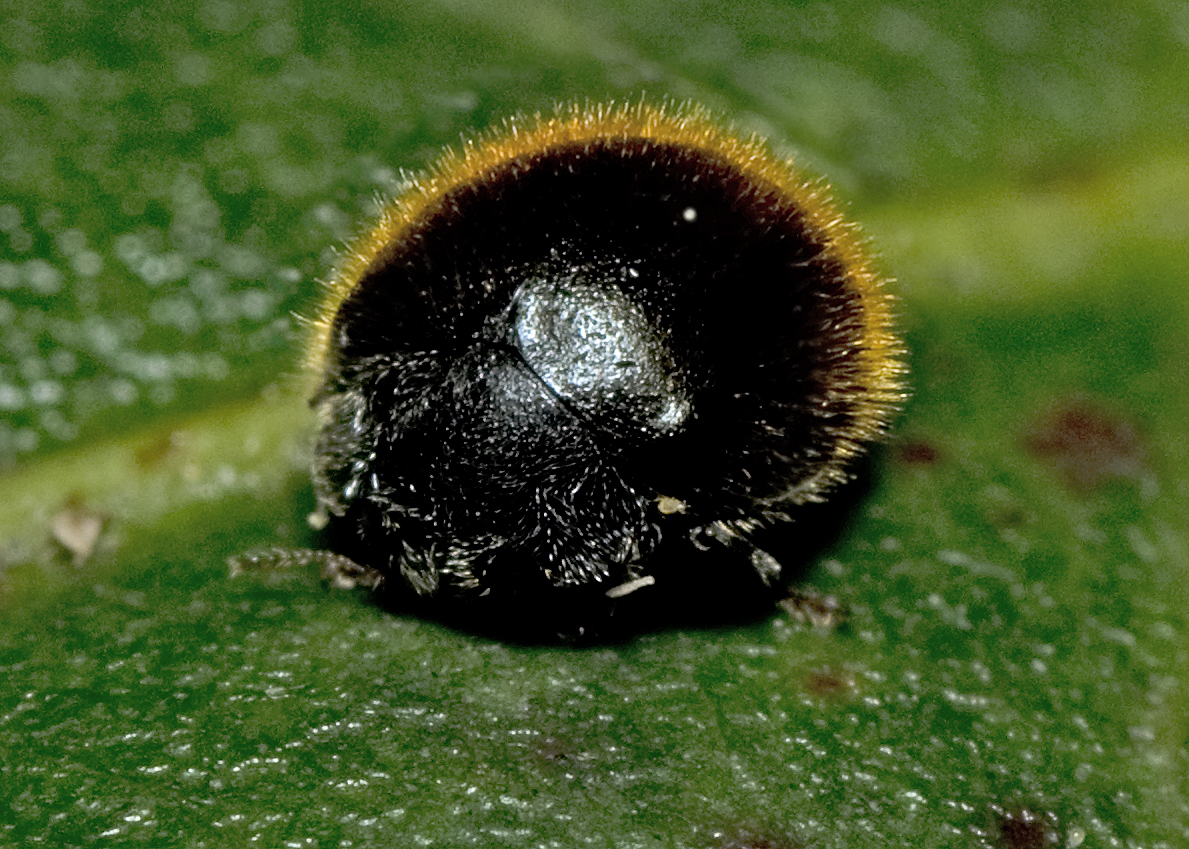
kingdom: Animalia
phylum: Arthropoda
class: Insecta
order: Coleoptera
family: Coccinellidae
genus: Erithionyx
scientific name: Erithionyx
